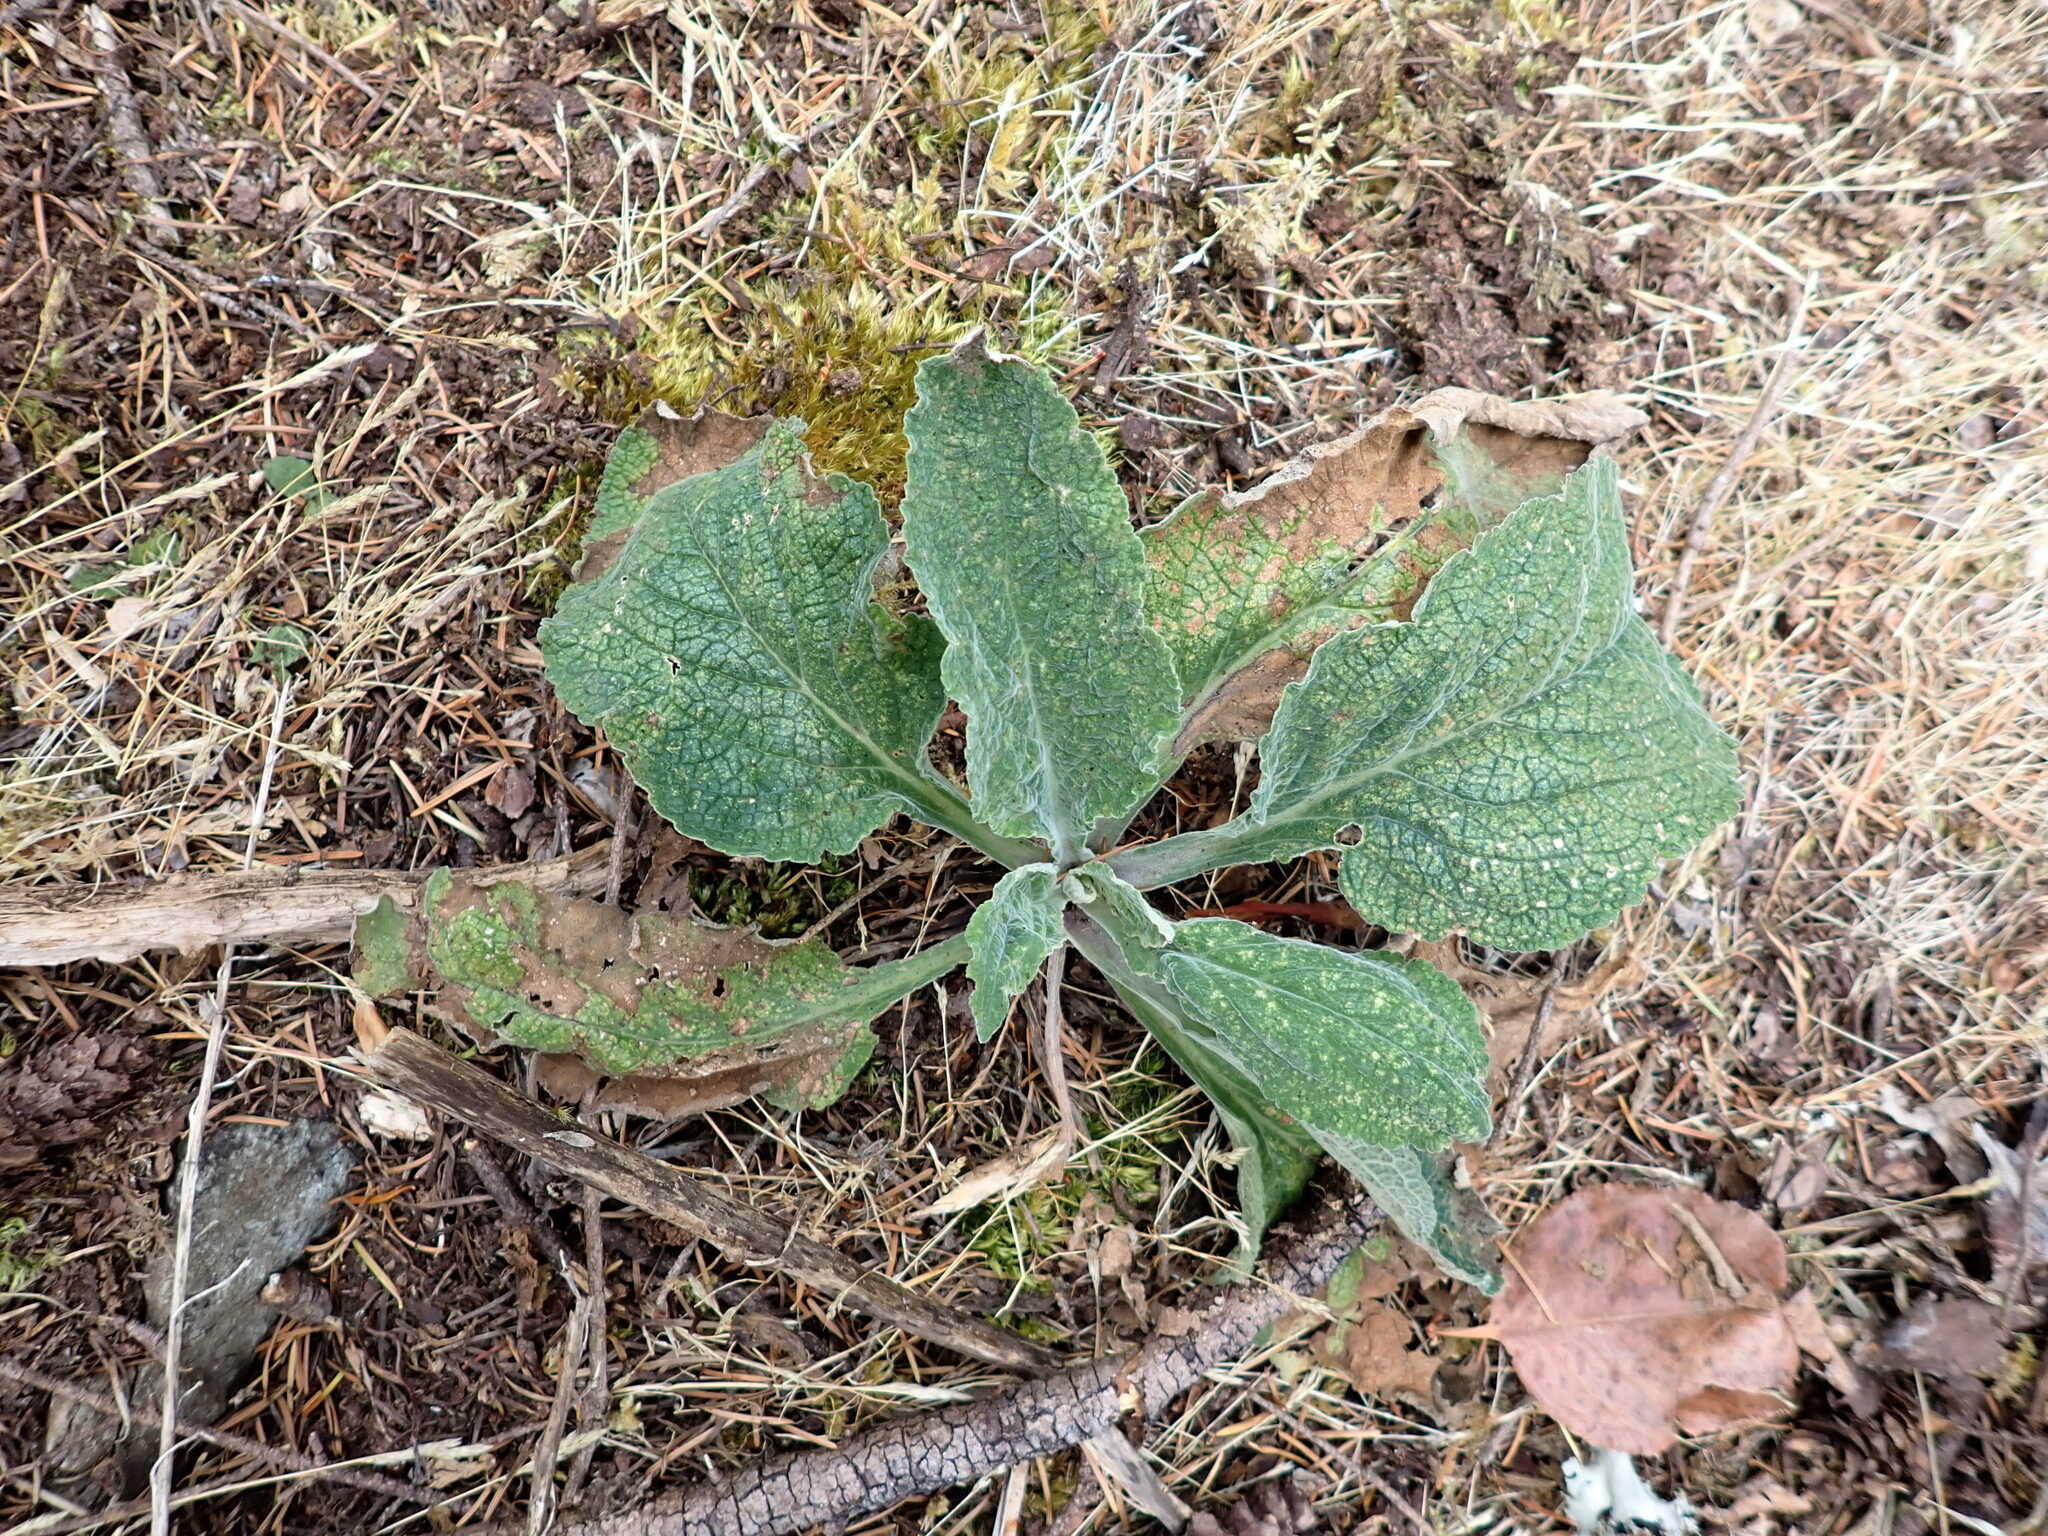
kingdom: Plantae
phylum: Tracheophyta
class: Magnoliopsida
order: Lamiales
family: Plantaginaceae
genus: Digitalis
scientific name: Digitalis purpurea
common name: Foxglove
